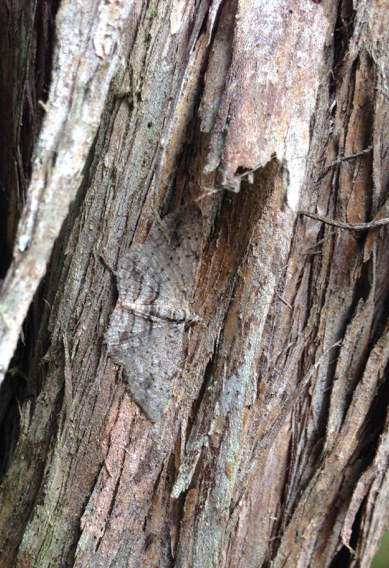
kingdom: Animalia
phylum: Arthropoda
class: Insecta
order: Lepidoptera
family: Geometridae
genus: Didymoctenia
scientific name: Didymoctenia exsuperata
